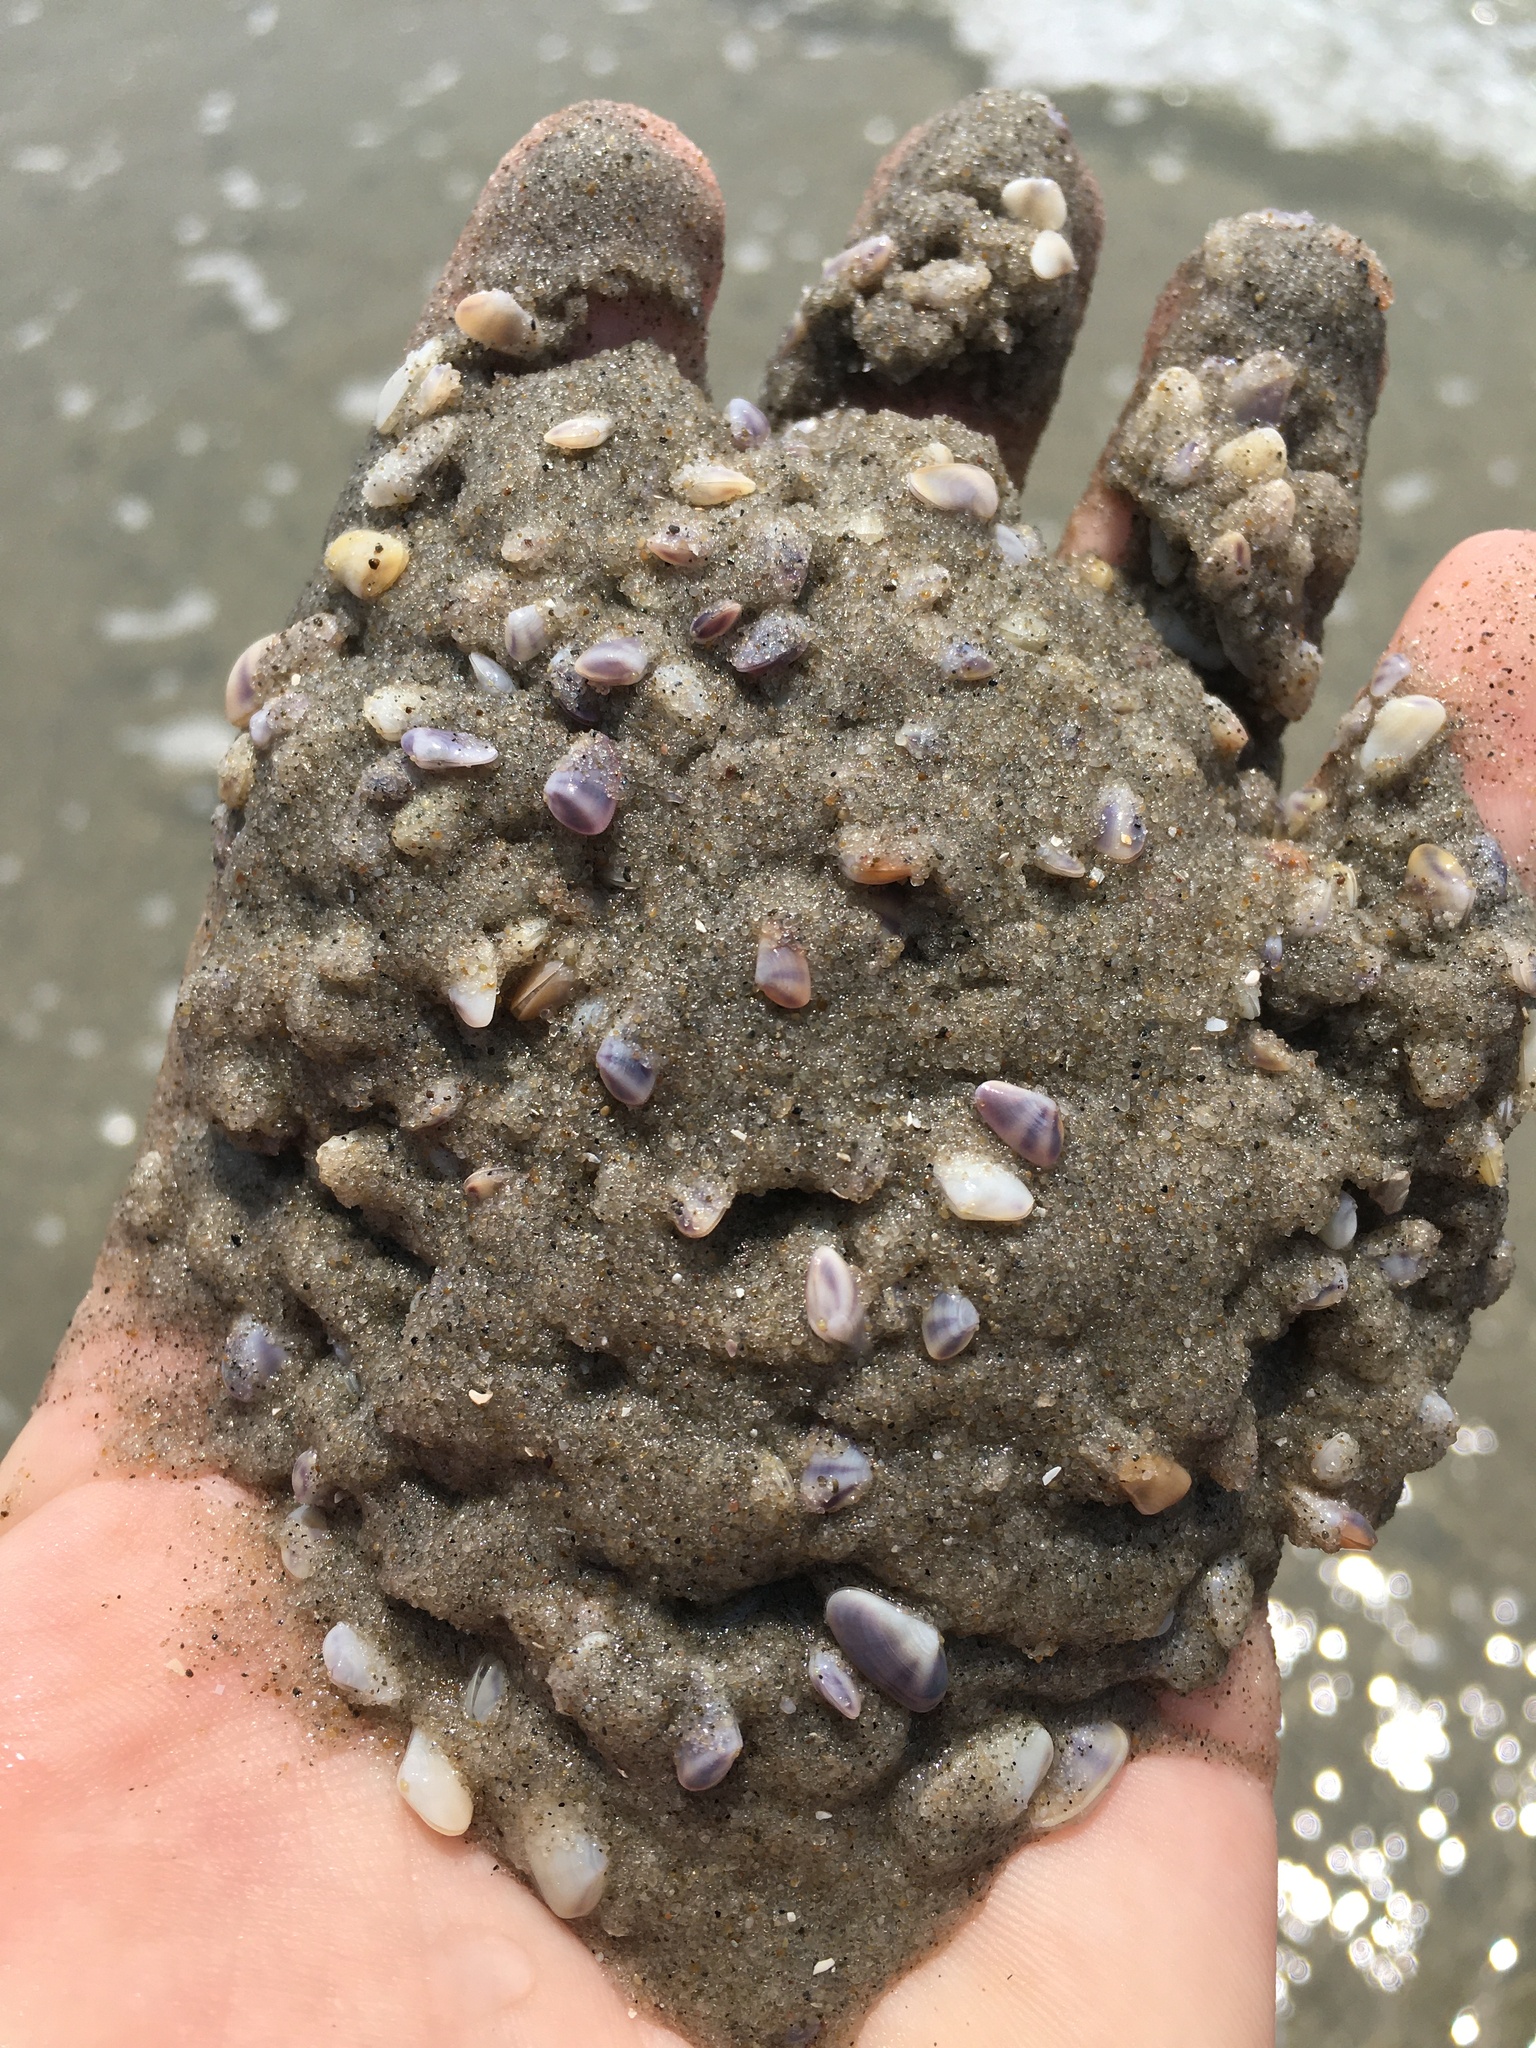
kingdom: Animalia
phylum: Mollusca
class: Bivalvia
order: Cardiida
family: Donacidae
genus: Donax
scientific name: Donax fossor
